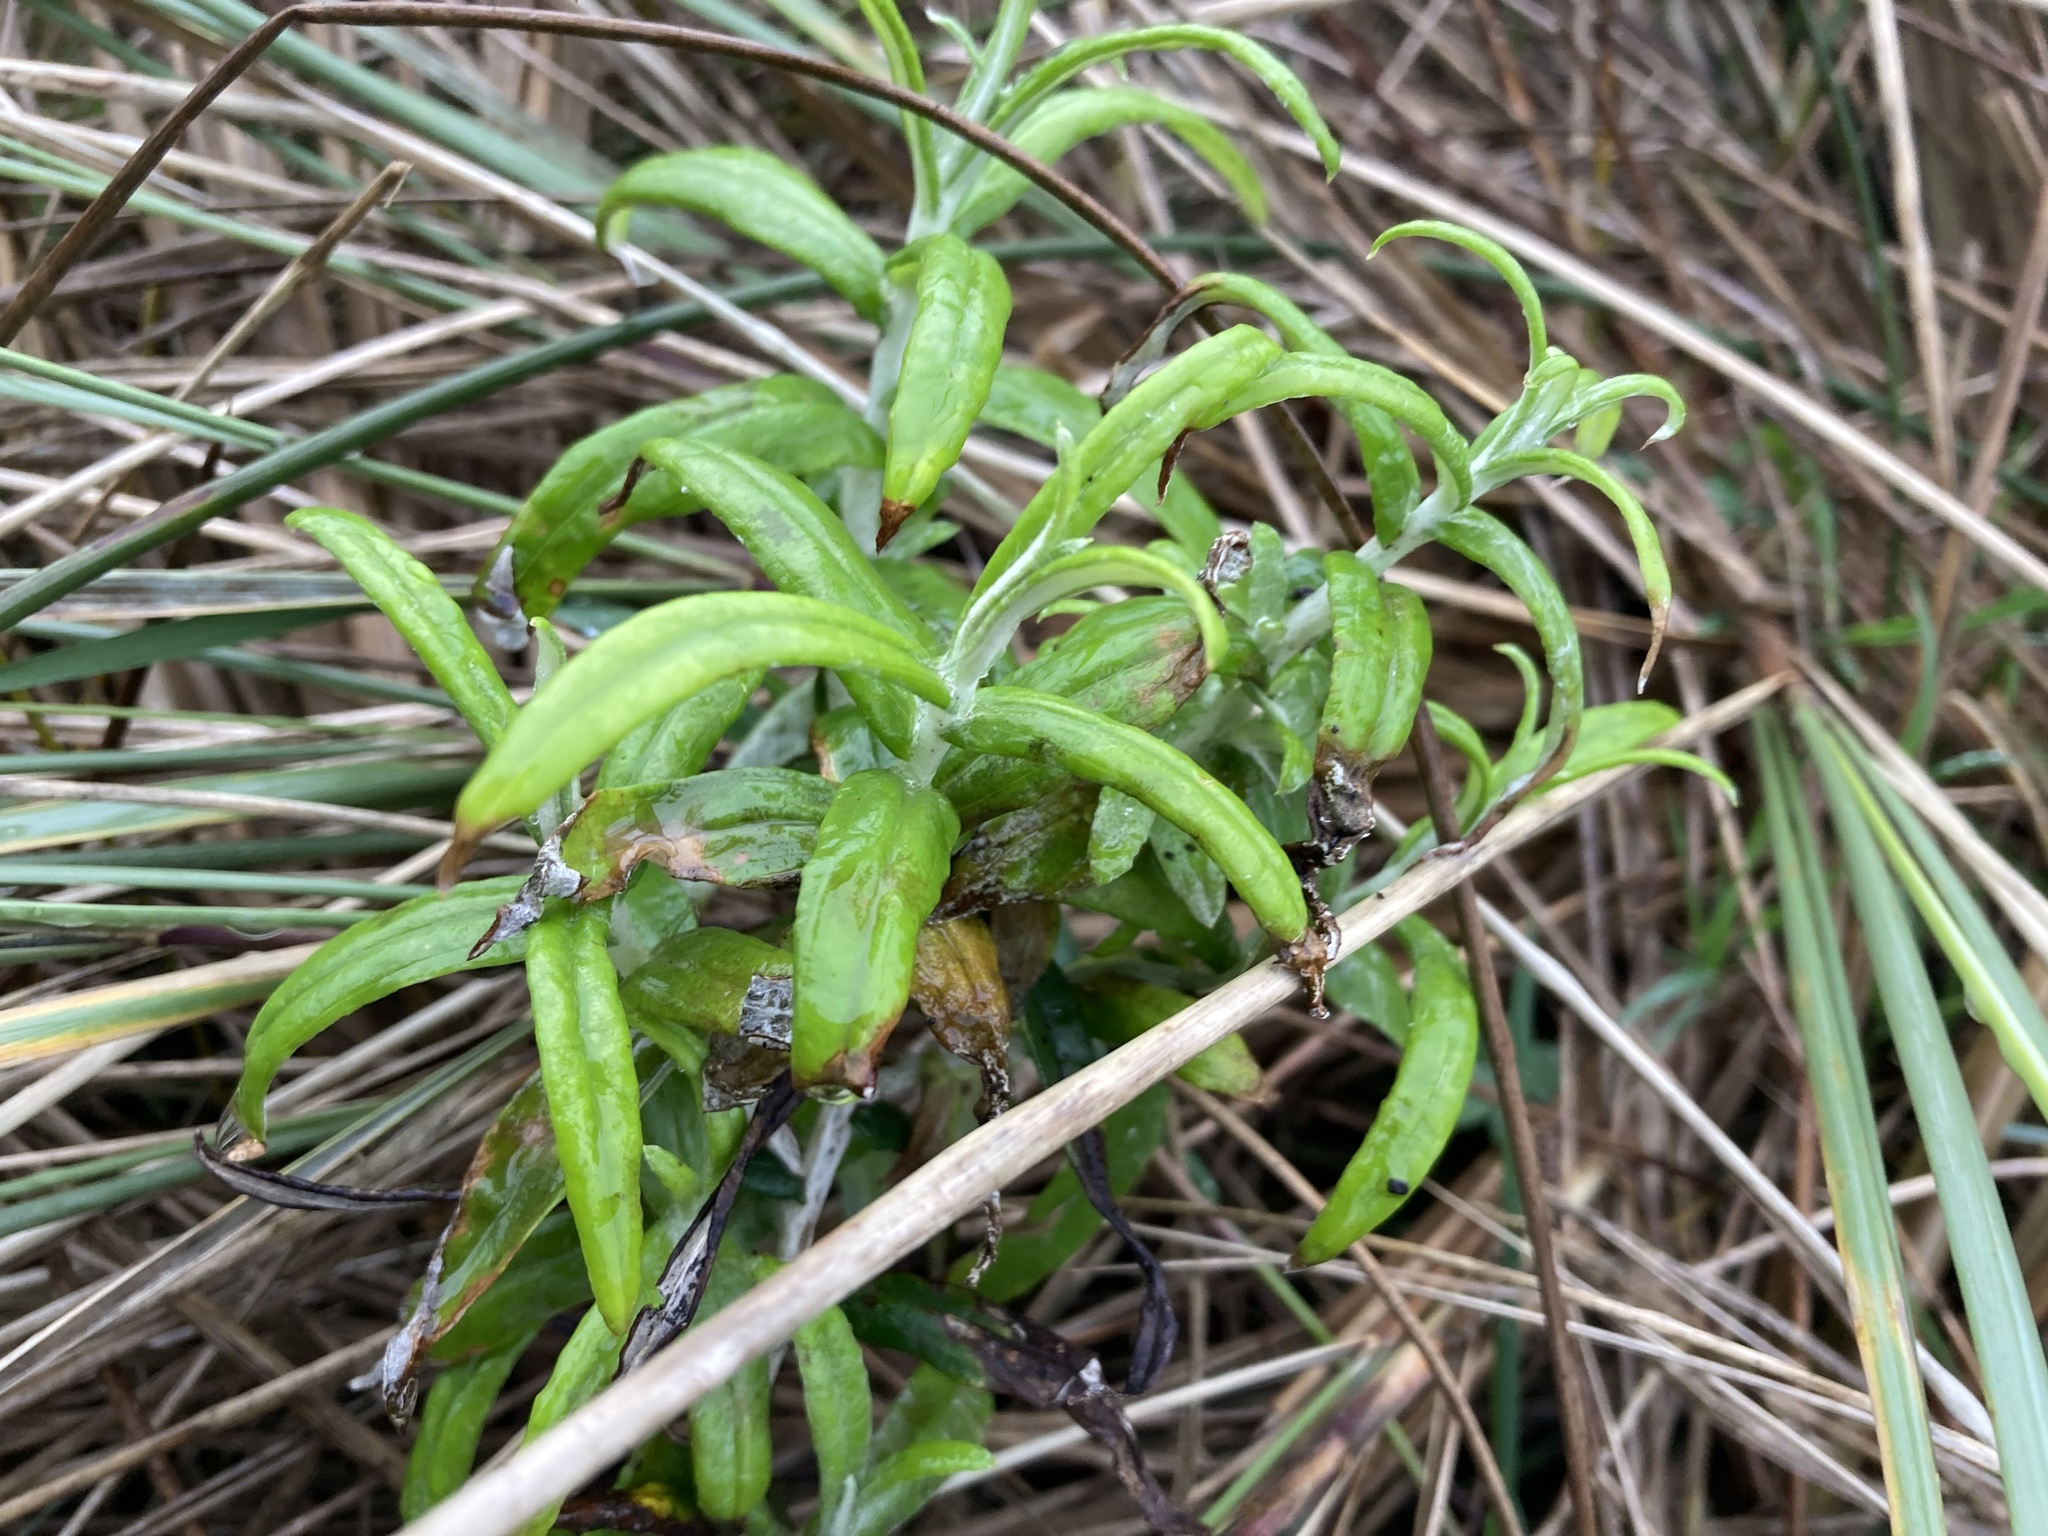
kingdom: Plantae
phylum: Tracheophyta
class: Magnoliopsida
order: Asterales
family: Asteraceae
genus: Anaphalis
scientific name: Anaphalis margaritacea
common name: Pearly everlasting
